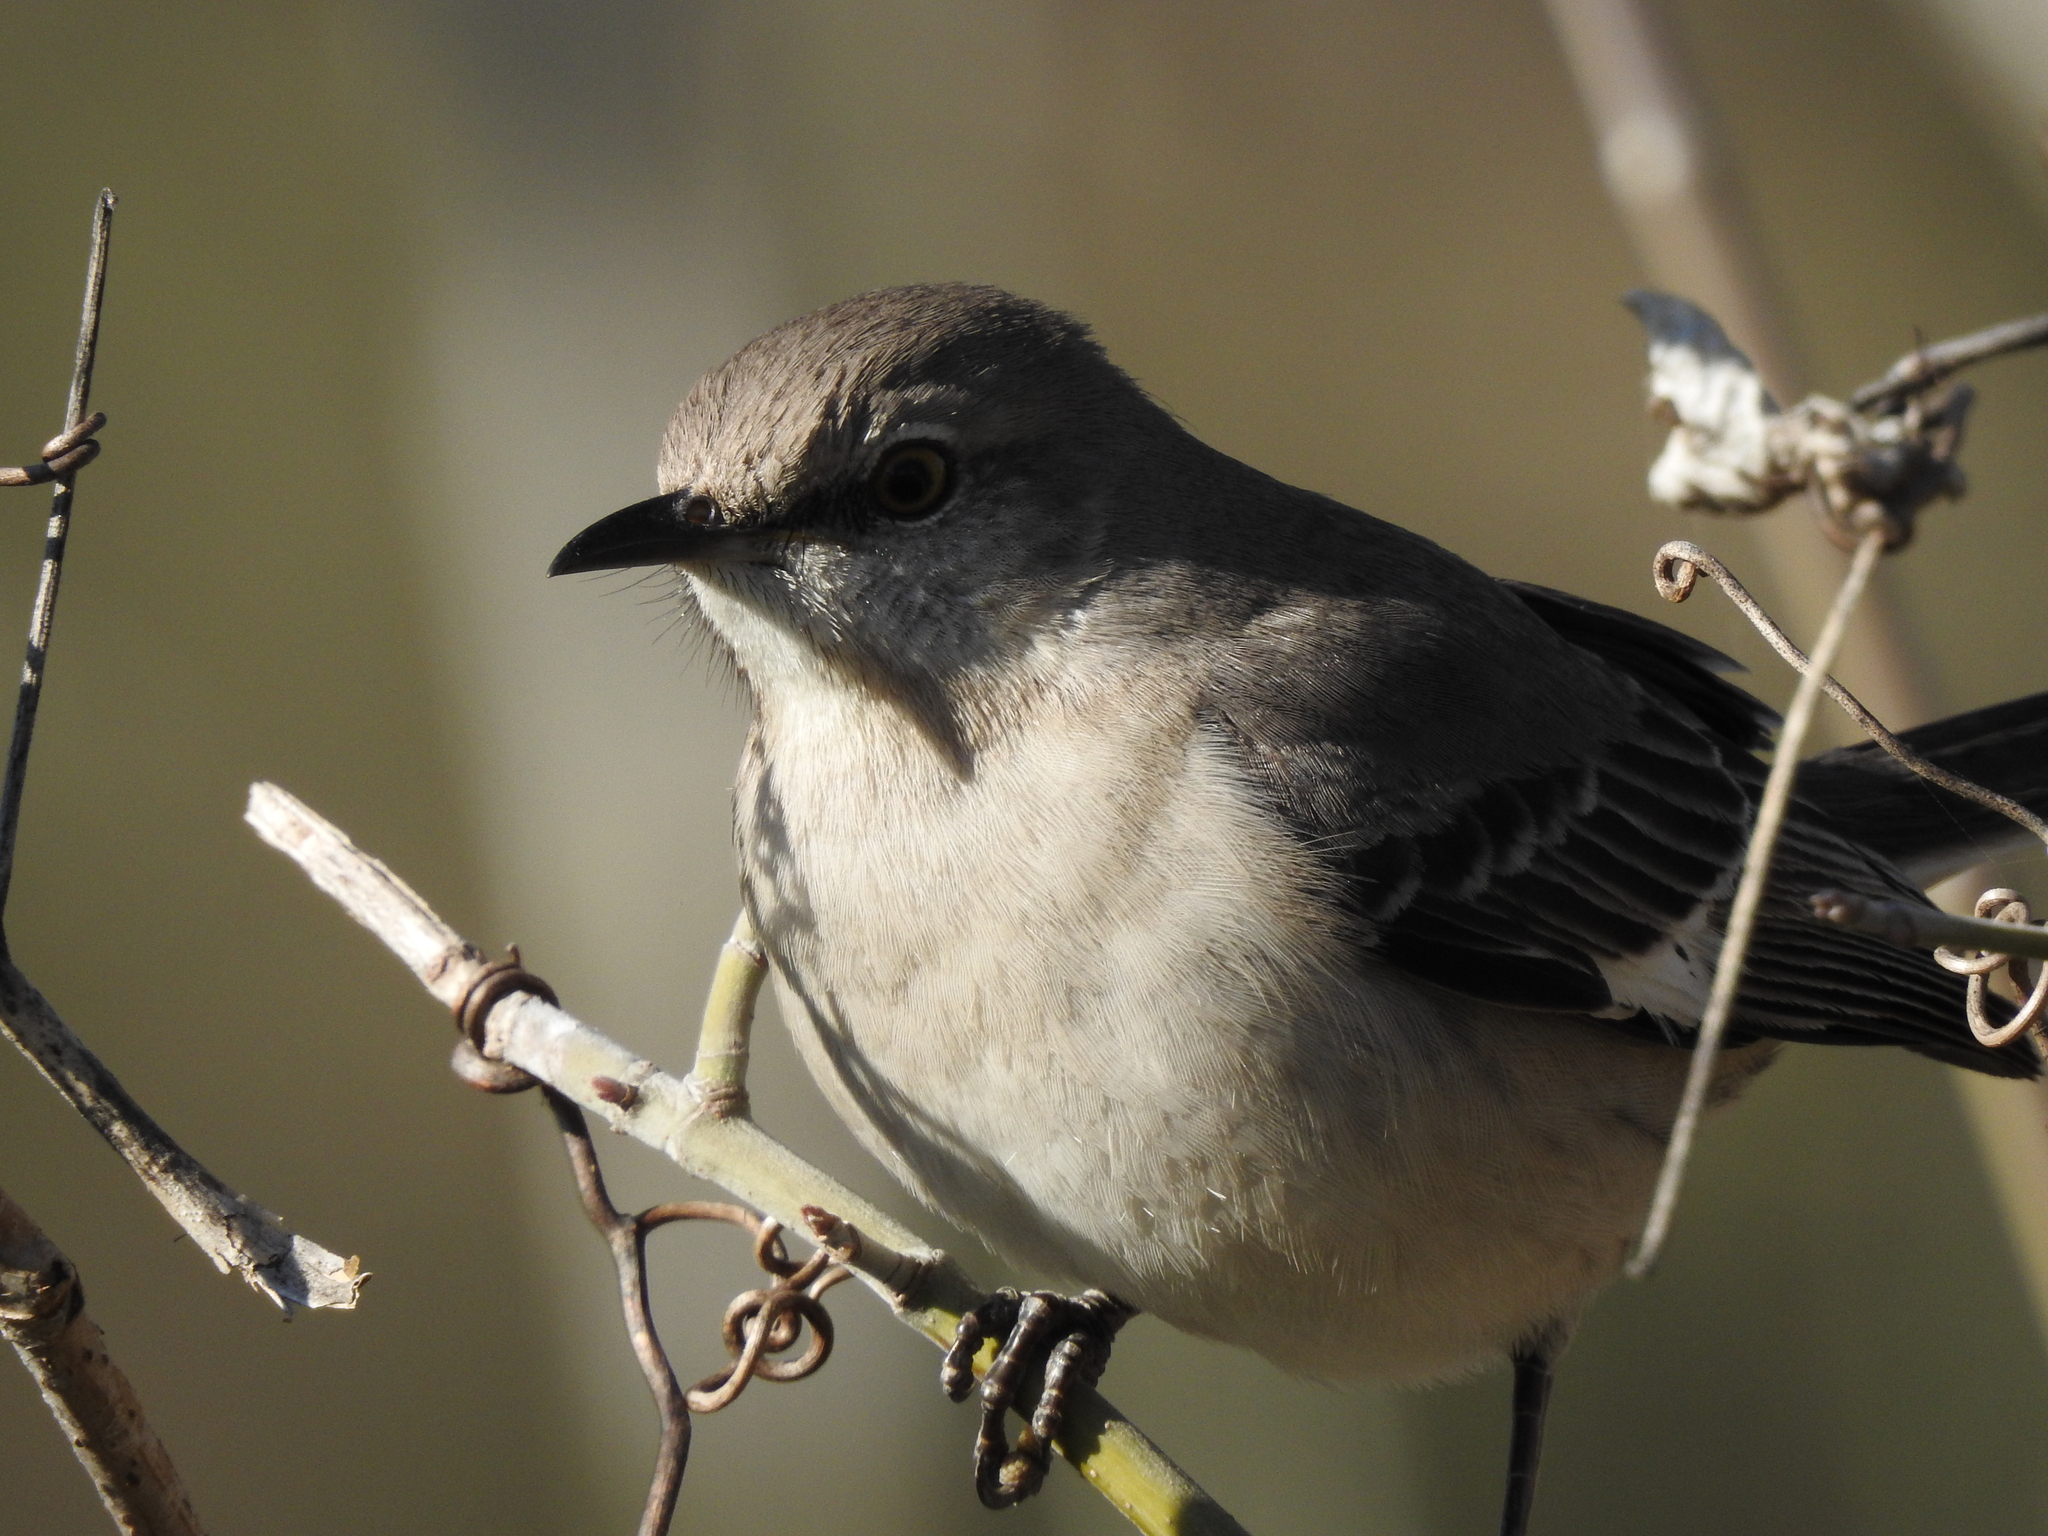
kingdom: Animalia
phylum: Chordata
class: Aves
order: Passeriformes
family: Mimidae
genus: Mimus
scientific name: Mimus polyglottos
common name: Northern mockingbird
